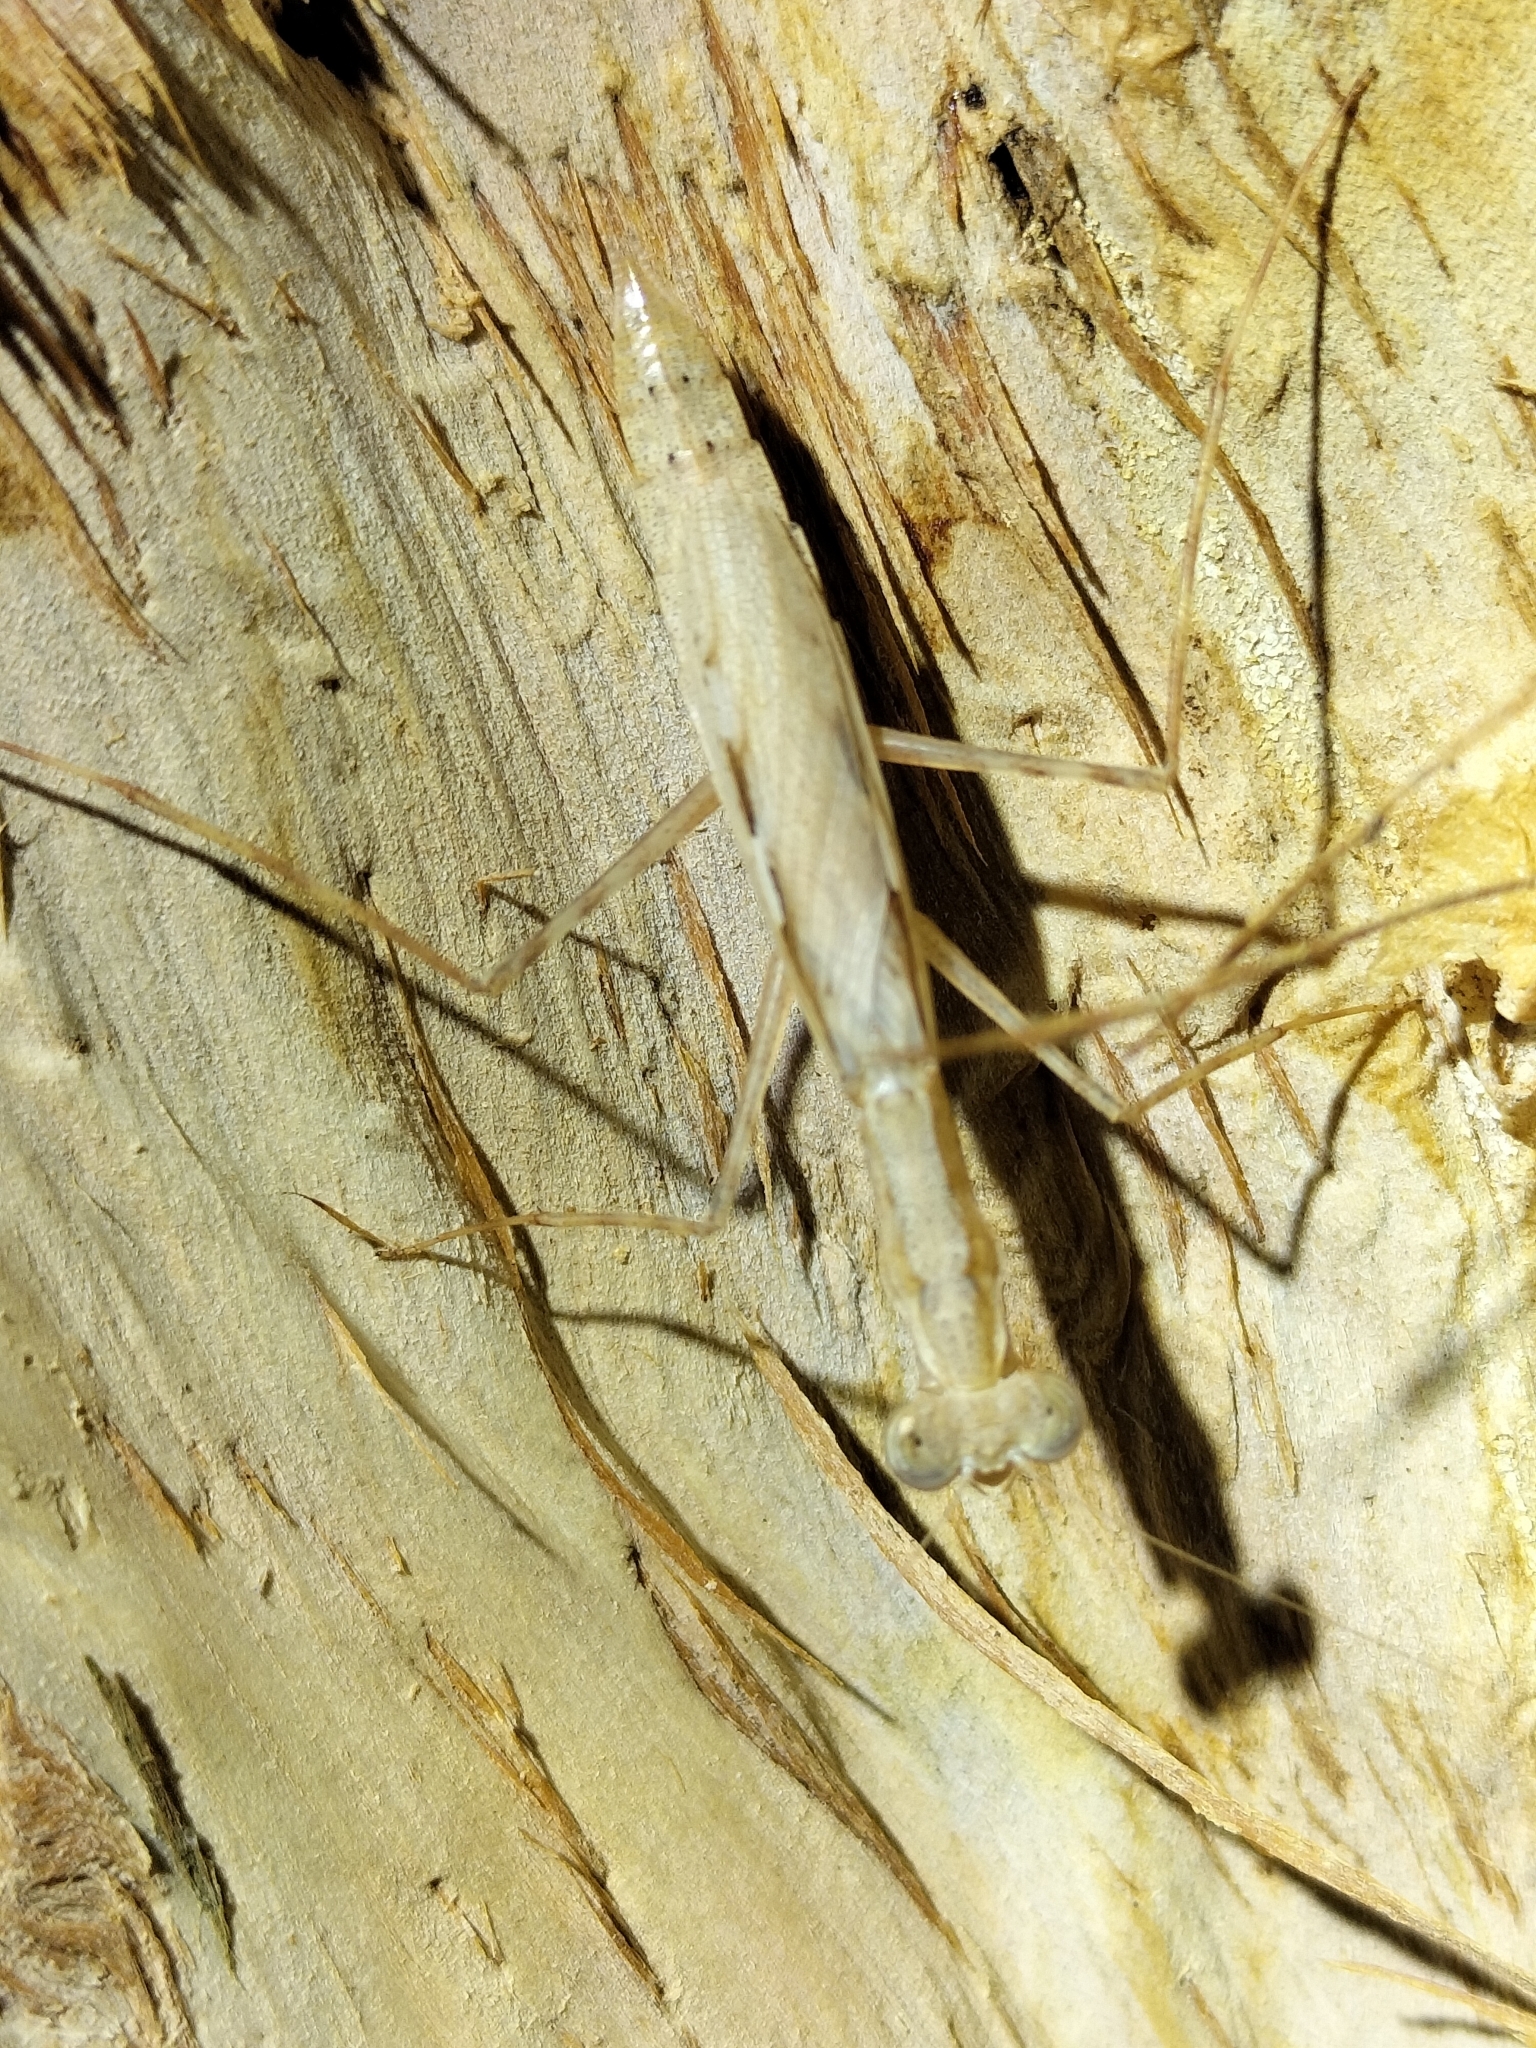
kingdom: Animalia
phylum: Arthropoda
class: Insecta
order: Mantodea
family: Nanomantidae
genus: Ima
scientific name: Ima fusca
